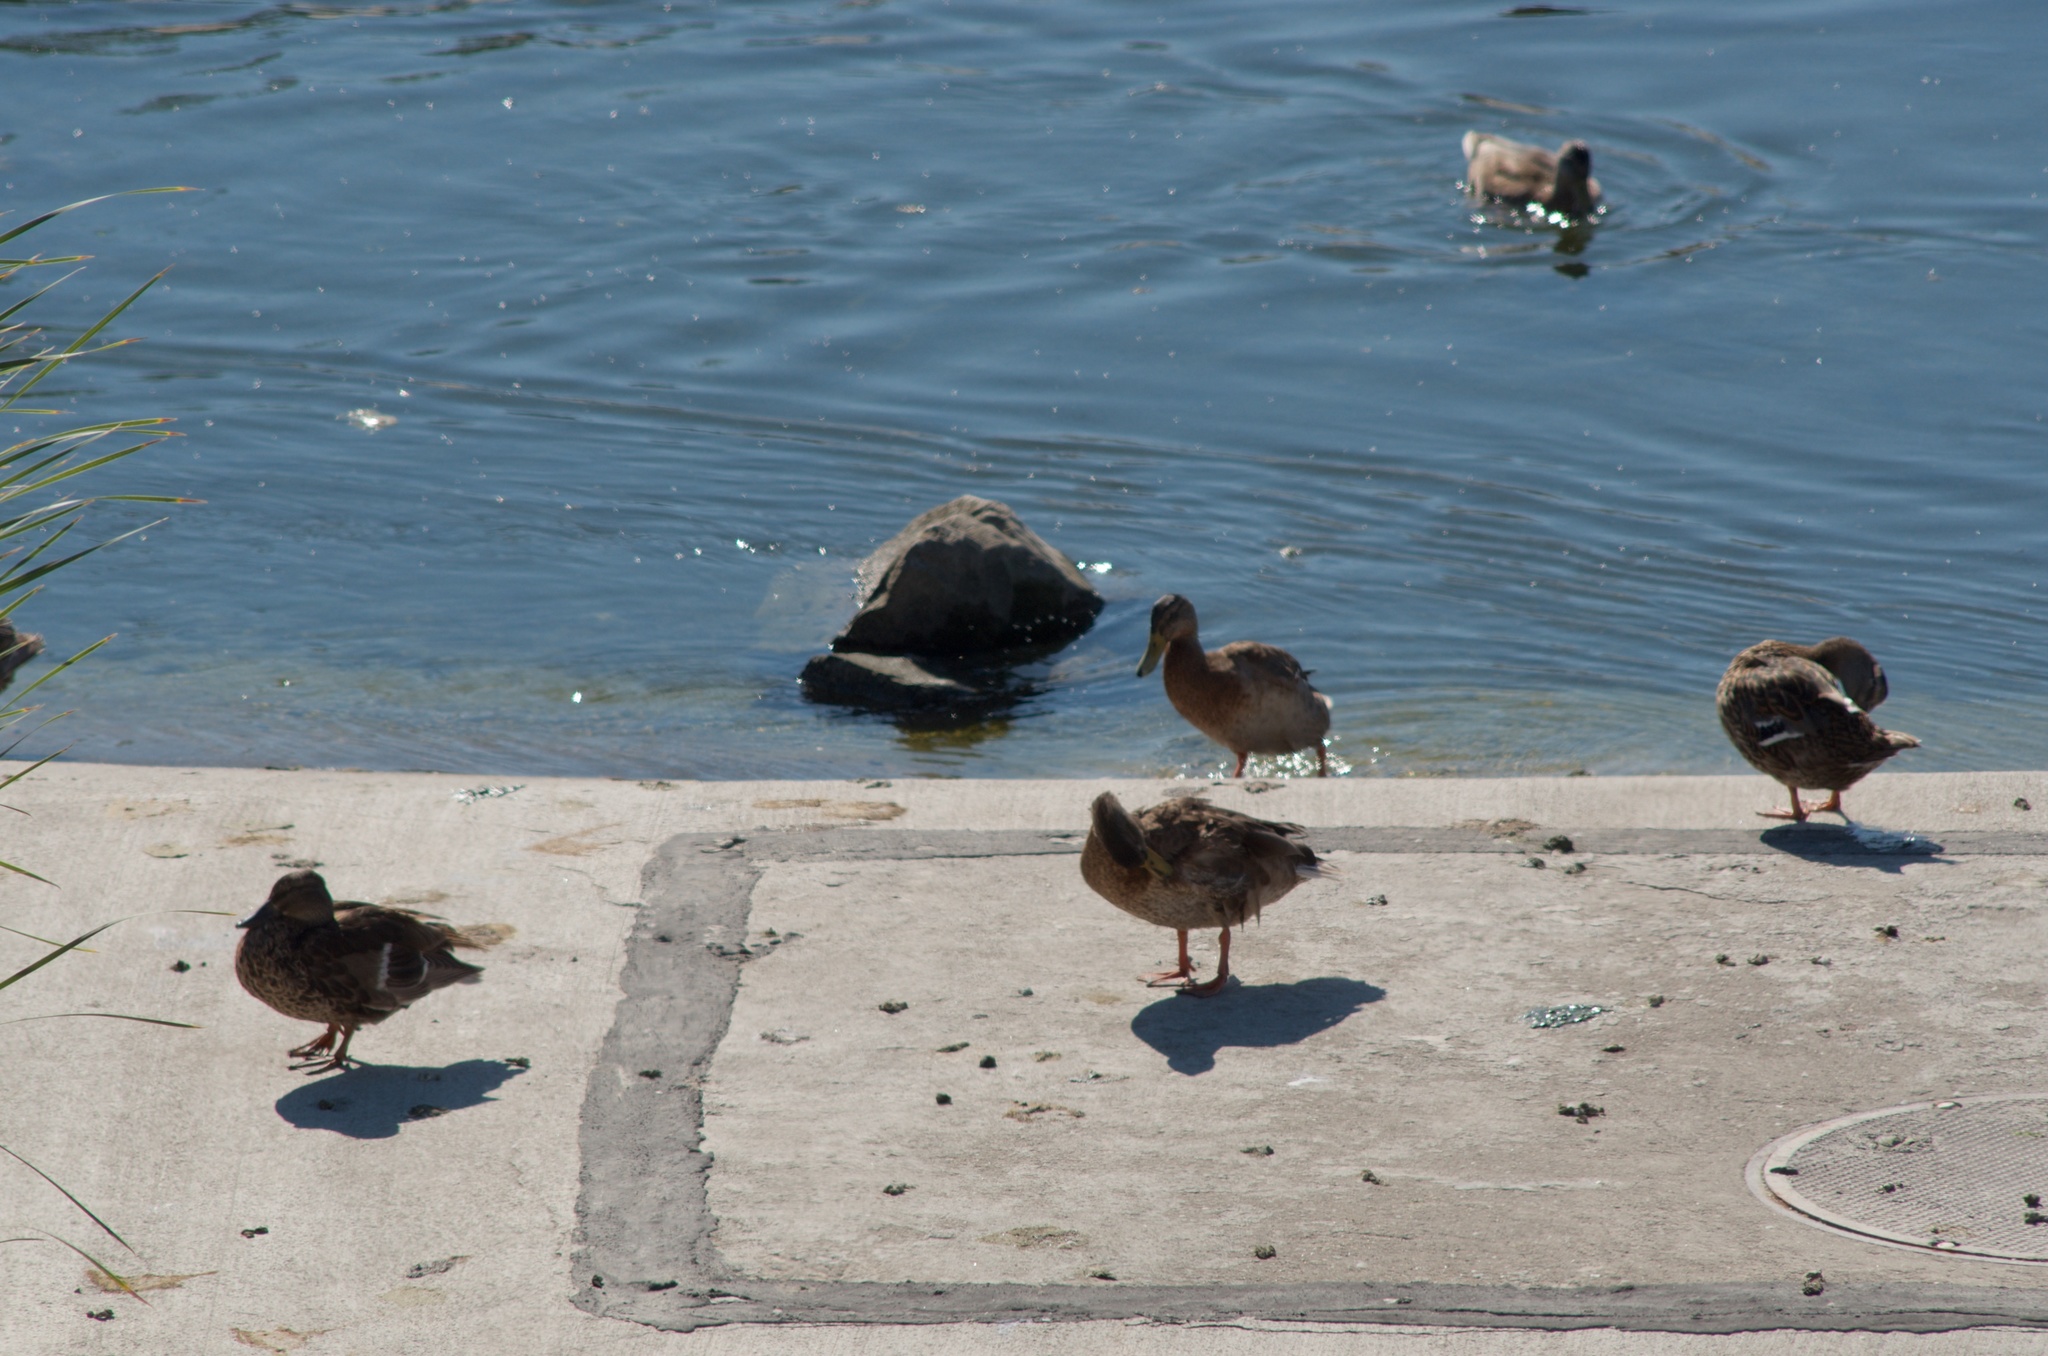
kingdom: Animalia
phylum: Chordata
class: Aves
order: Anseriformes
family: Anatidae
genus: Anas
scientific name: Anas platyrhynchos
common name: Mallard
